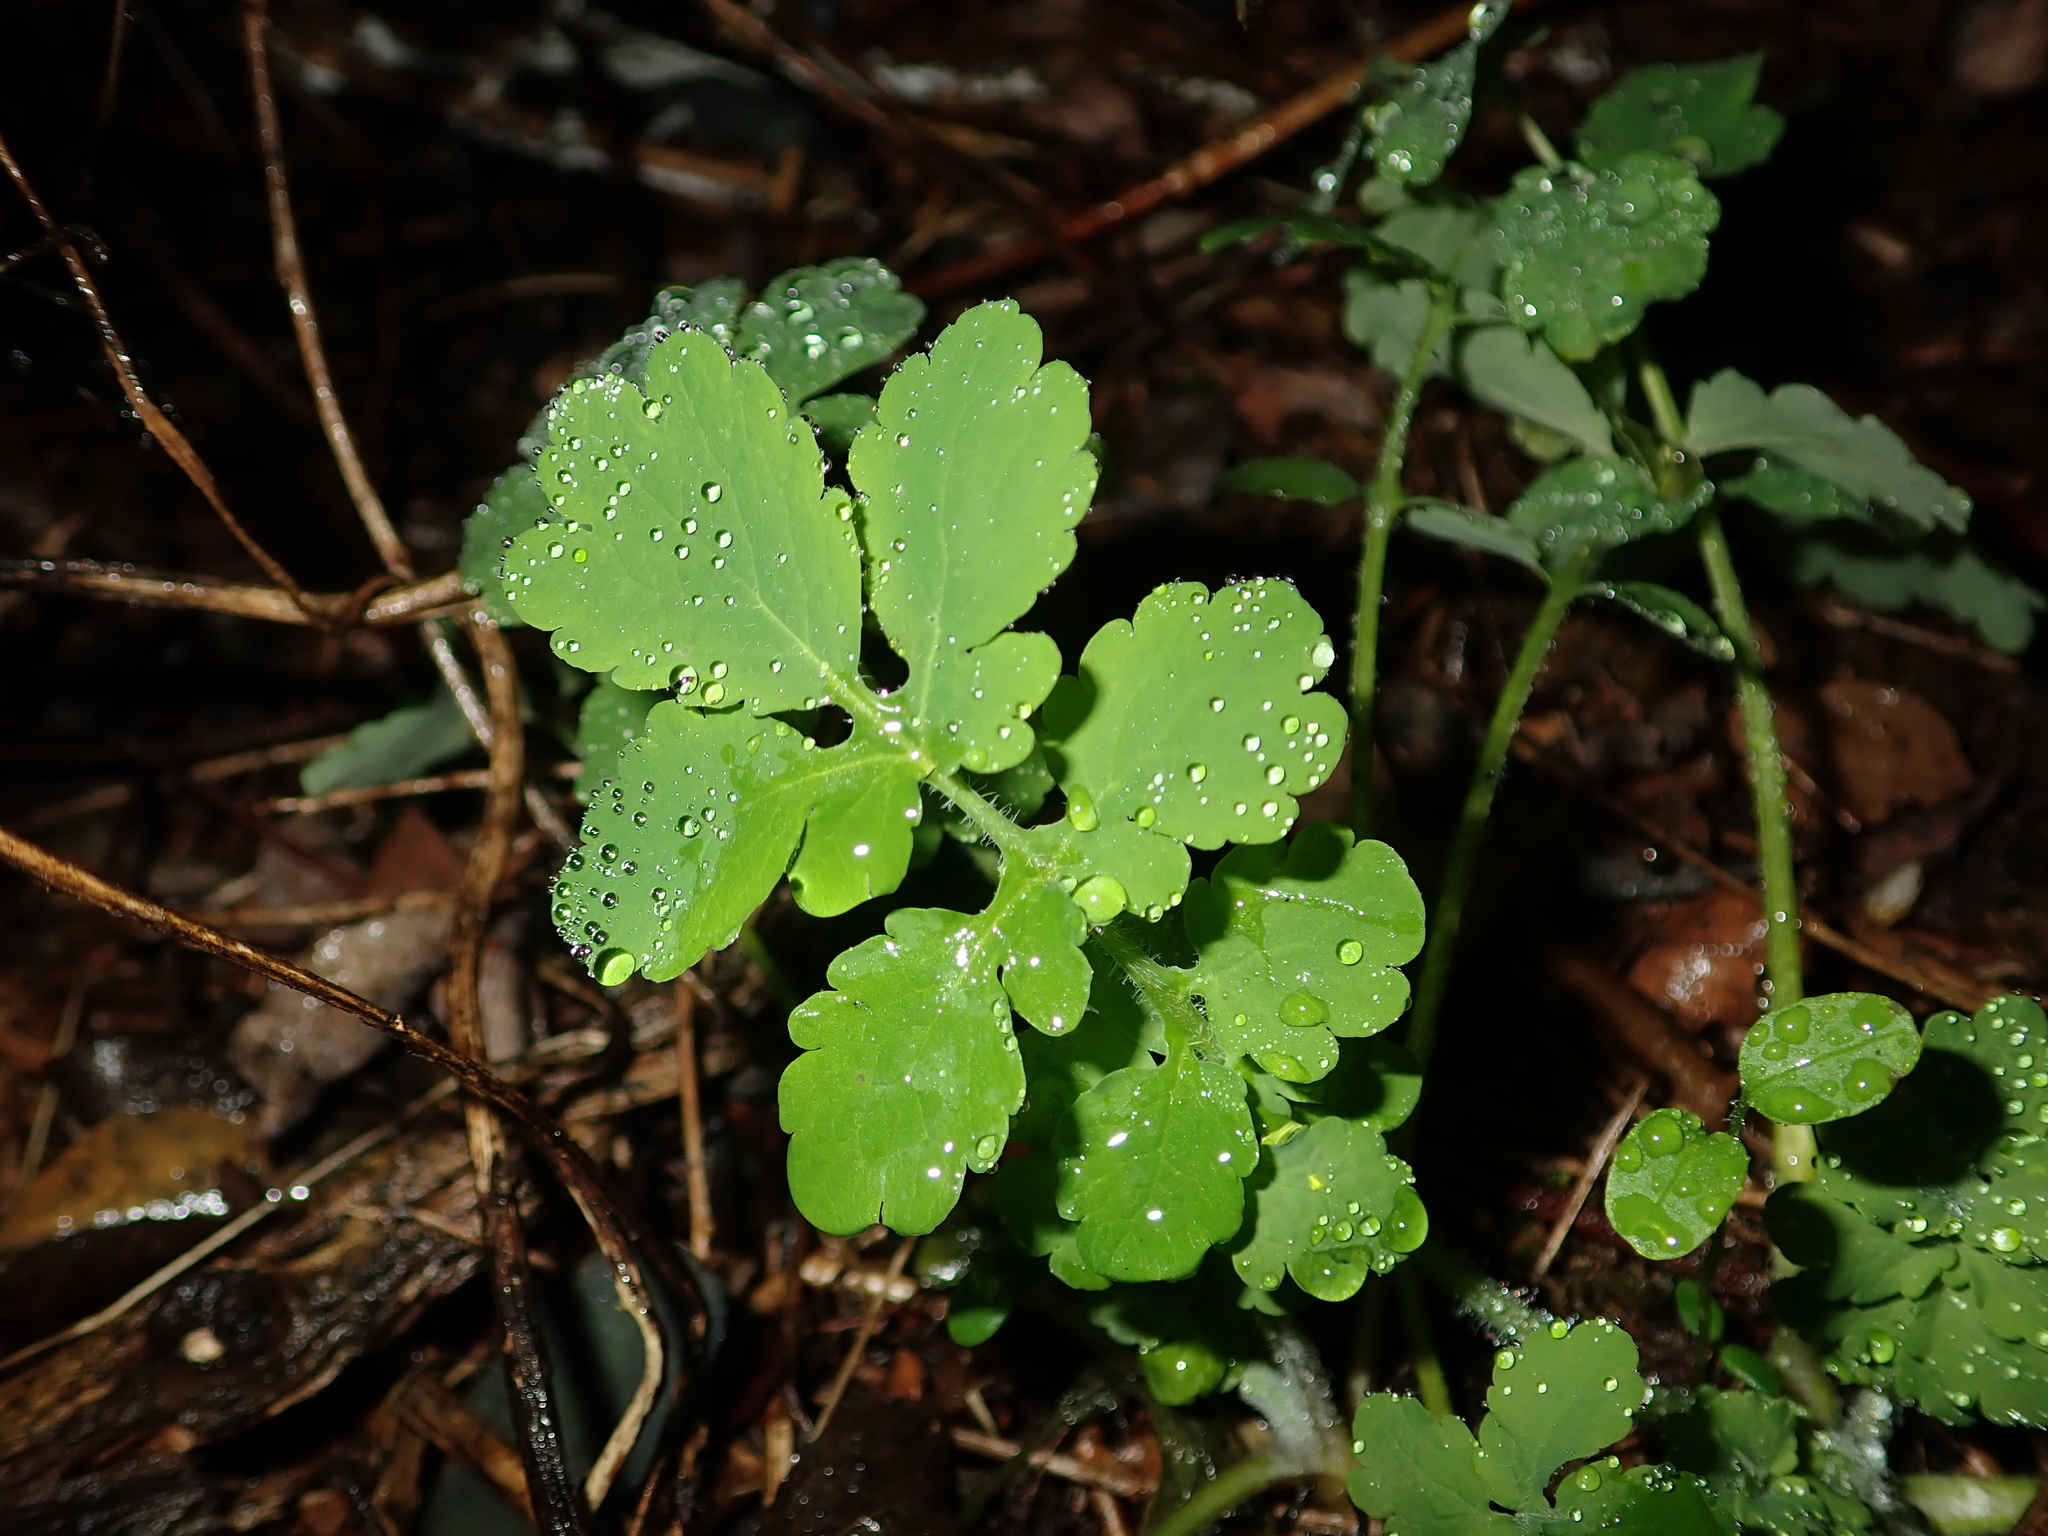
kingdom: Plantae
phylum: Tracheophyta
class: Magnoliopsida
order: Ranunculales
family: Papaveraceae
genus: Chelidonium
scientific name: Chelidonium majus
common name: Greater celandine
